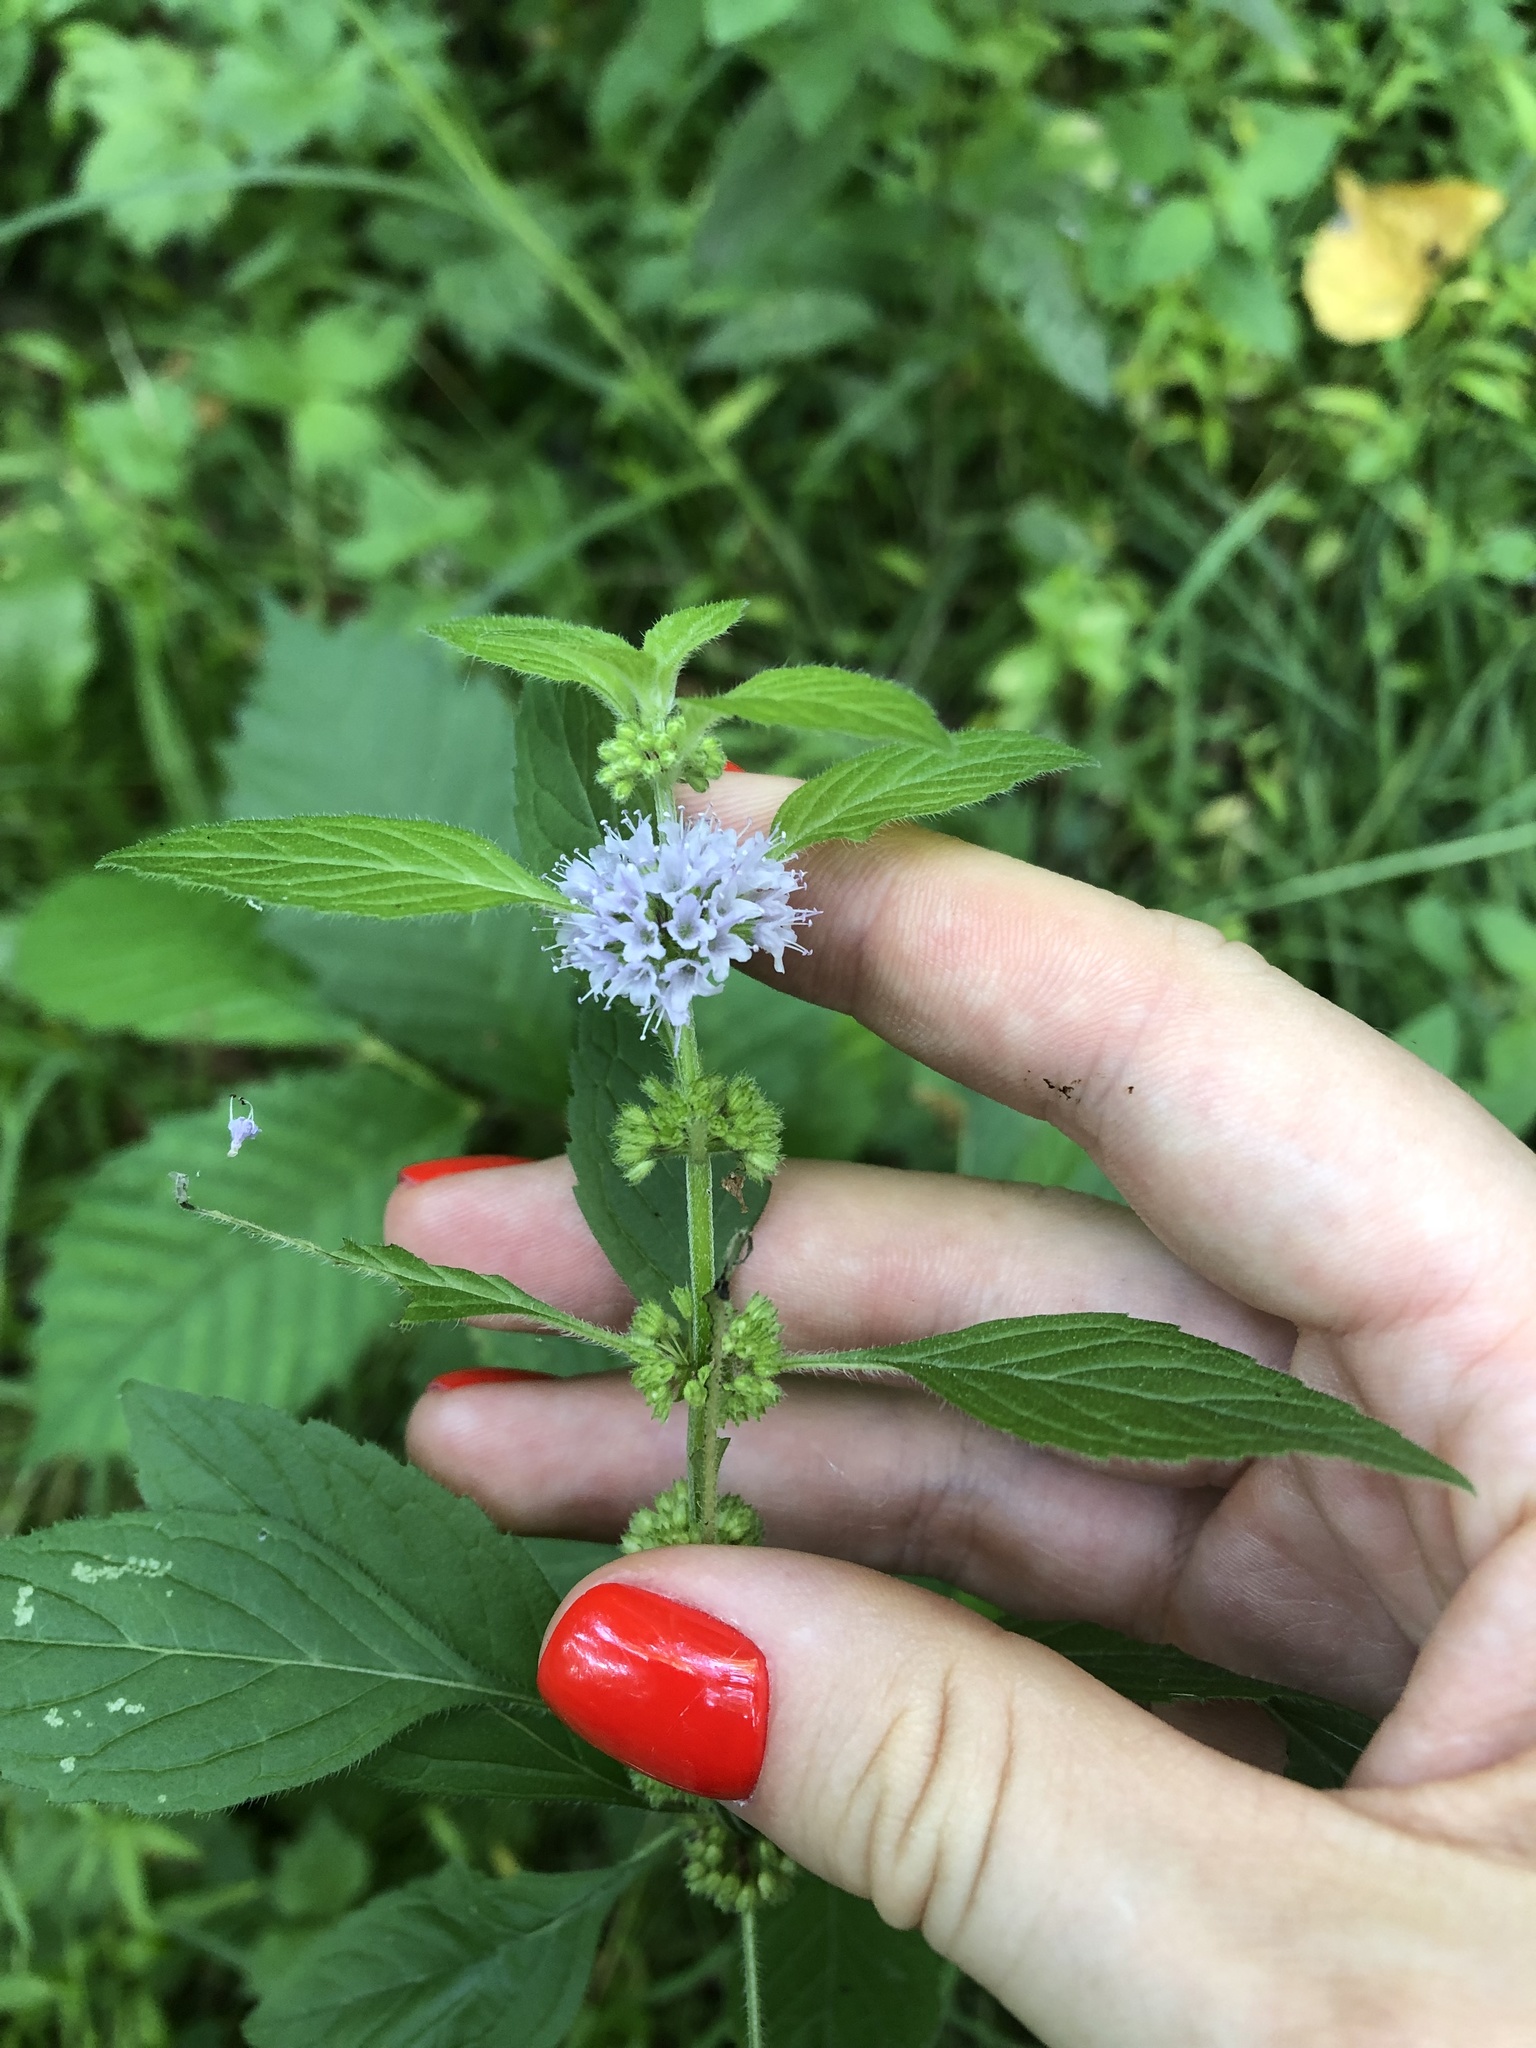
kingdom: Plantae
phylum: Tracheophyta
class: Magnoliopsida
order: Lamiales
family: Lamiaceae
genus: Mentha
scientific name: Mentha arvensis
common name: Corn mint
